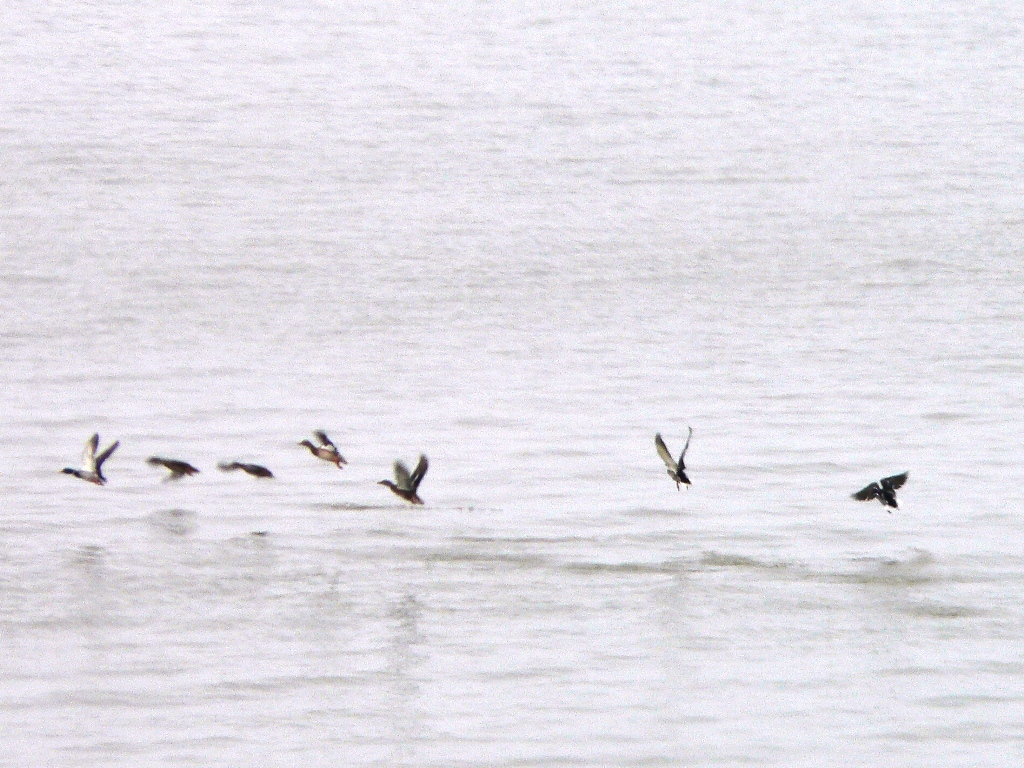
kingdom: Animalia
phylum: Chordata
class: Aves
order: Anseriformes
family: Anatidae
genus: Anas
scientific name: Anas platyrhynchos
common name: Mallard
